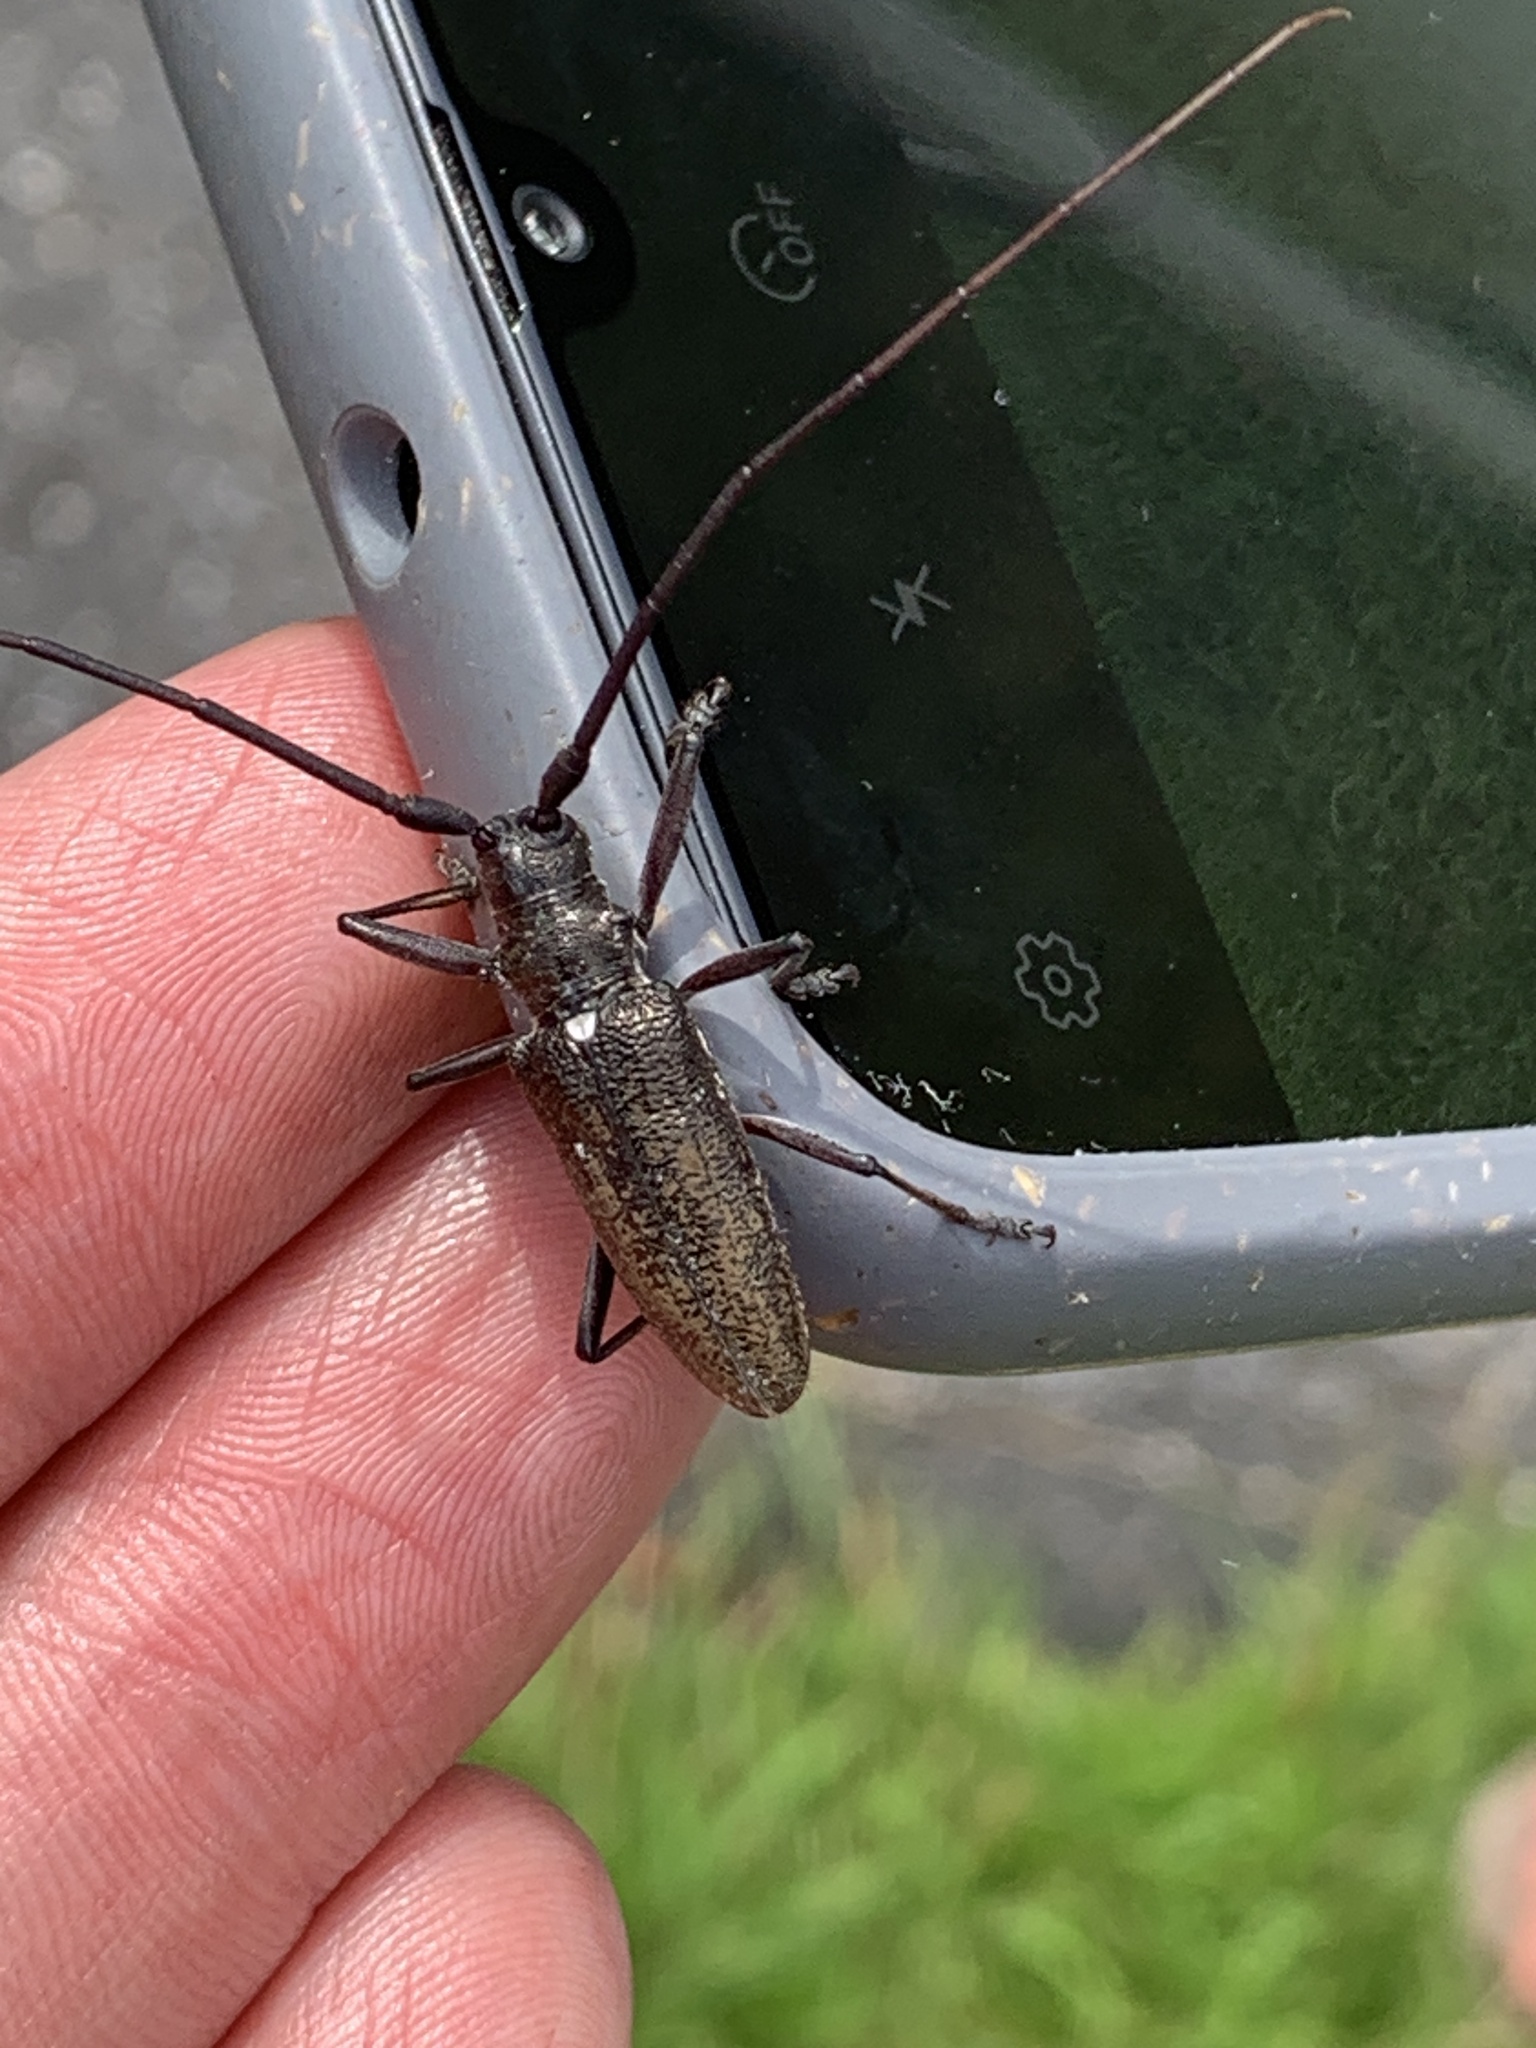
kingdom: Animalia
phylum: Arthropoda
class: Insecta
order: Coleoptera
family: Cerambycidae
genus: Monochamus
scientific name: Monochamus scutellatus
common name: White-spotted sawyer beetle
